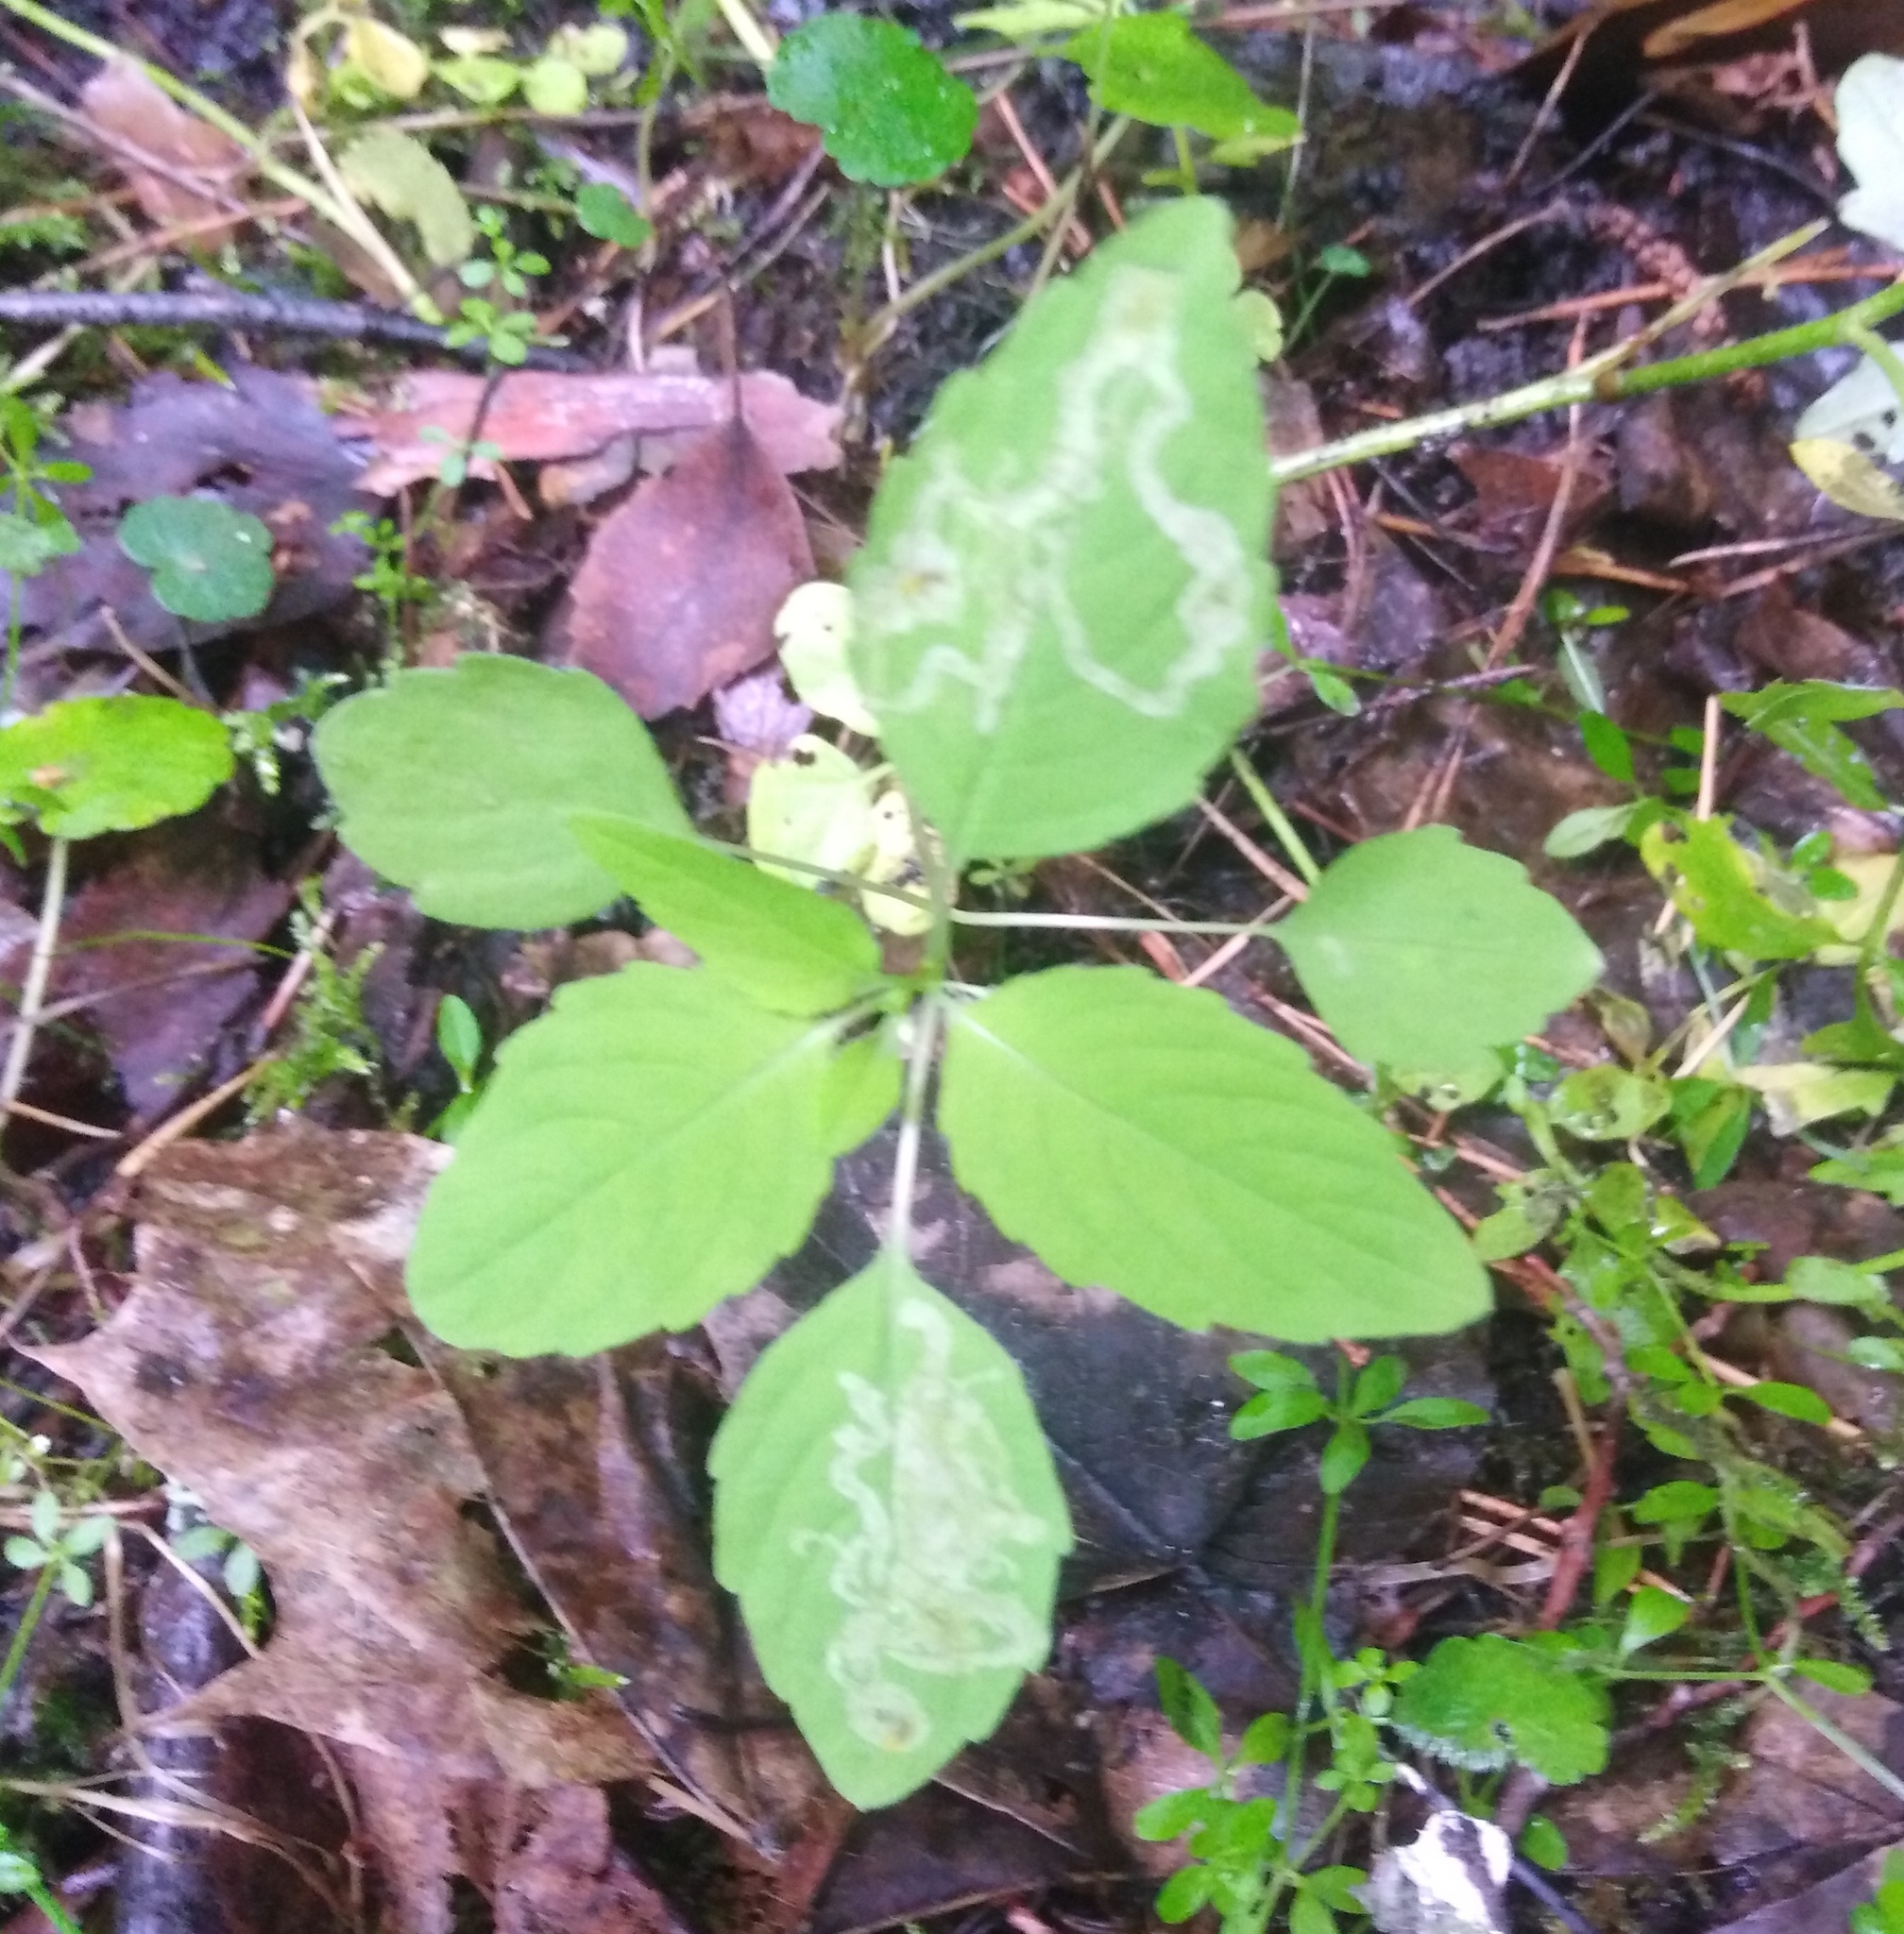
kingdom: Plantae
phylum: Tracheophyta
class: Magnoliopsida
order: Ericales
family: Balsaminaceae
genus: Impatiens
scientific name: Impatiens noli-tangere
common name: Touch-me-not balsam
